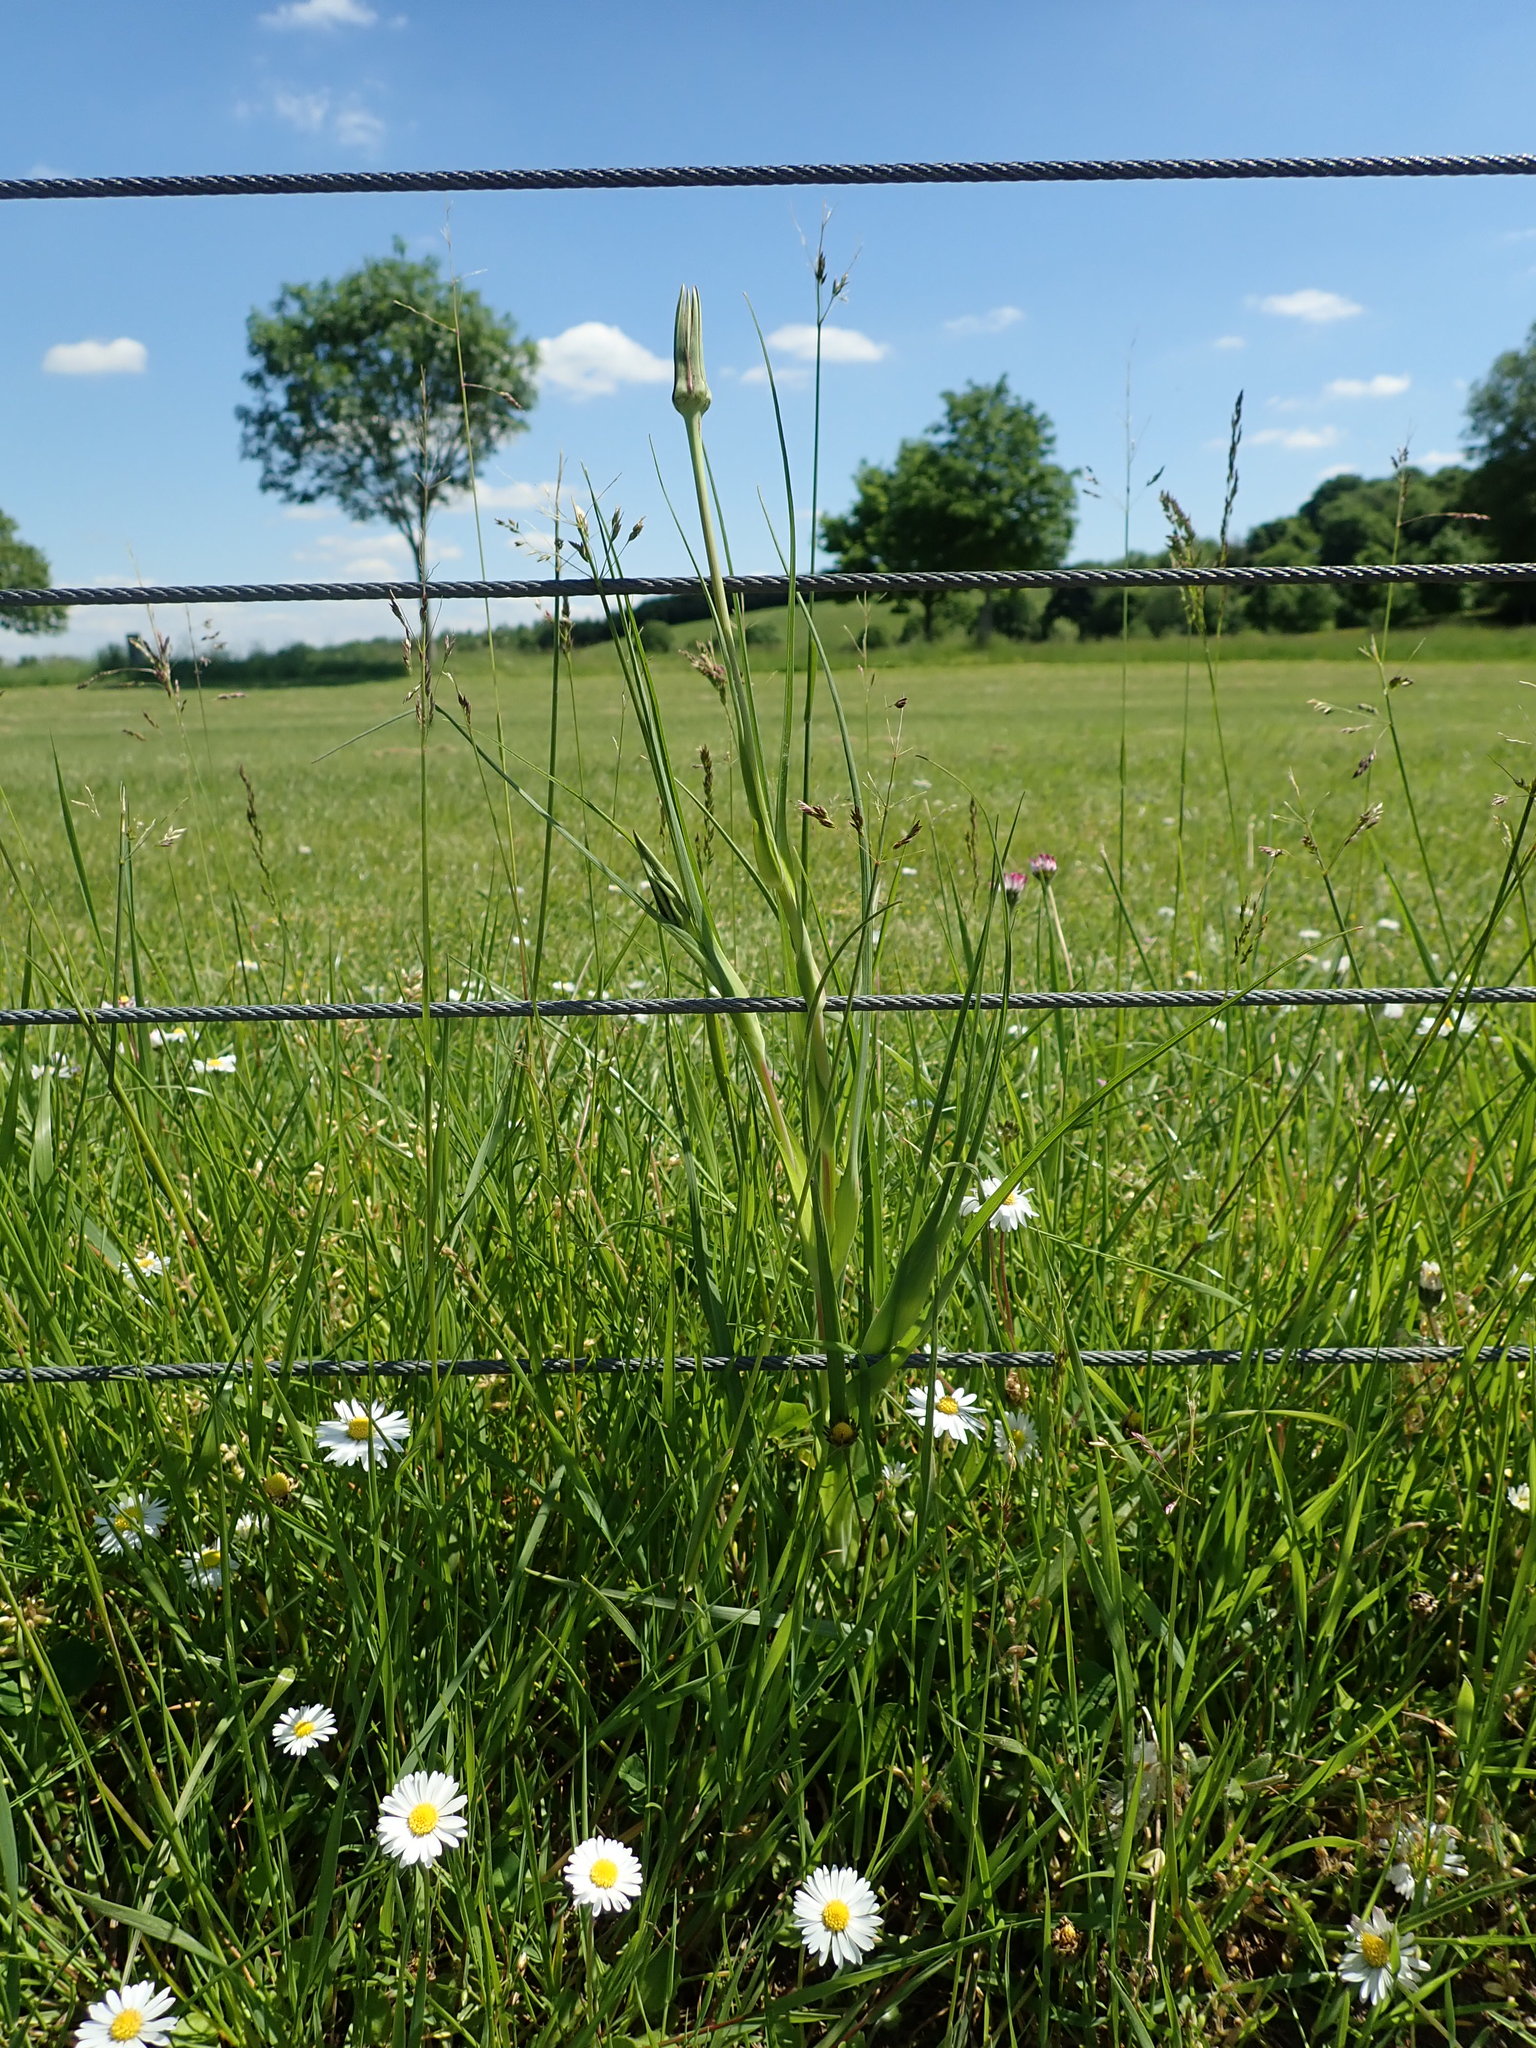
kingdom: Plantae
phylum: Tracheophyta
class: Magnoliopsida
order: Asterales
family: Asteraceae
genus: Tragopogon
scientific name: Tragopogon pratensis
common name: Goat's-beard
